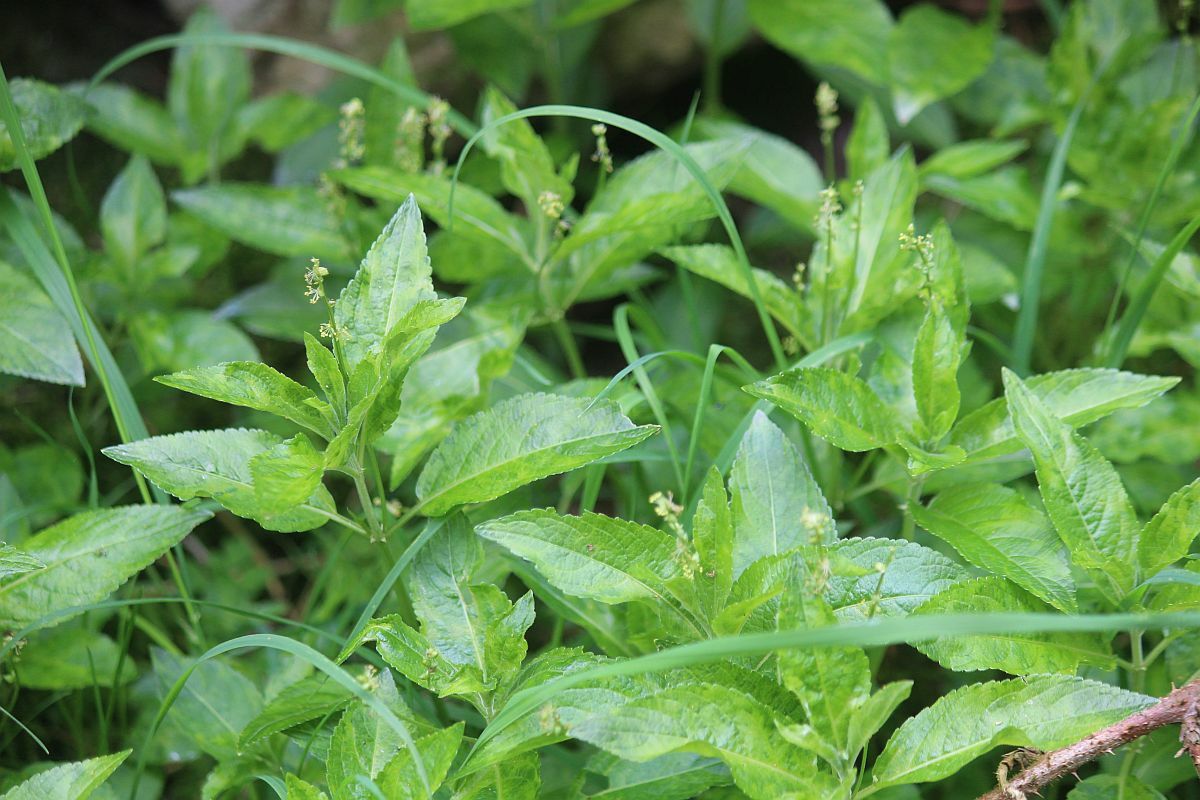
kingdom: Plantae
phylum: Tracheophyta
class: Magnoliopsida
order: Malpighiales
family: Euphorbiaceae
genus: Mercurialis
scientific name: Mercurialis perennis
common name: Dog mercury
